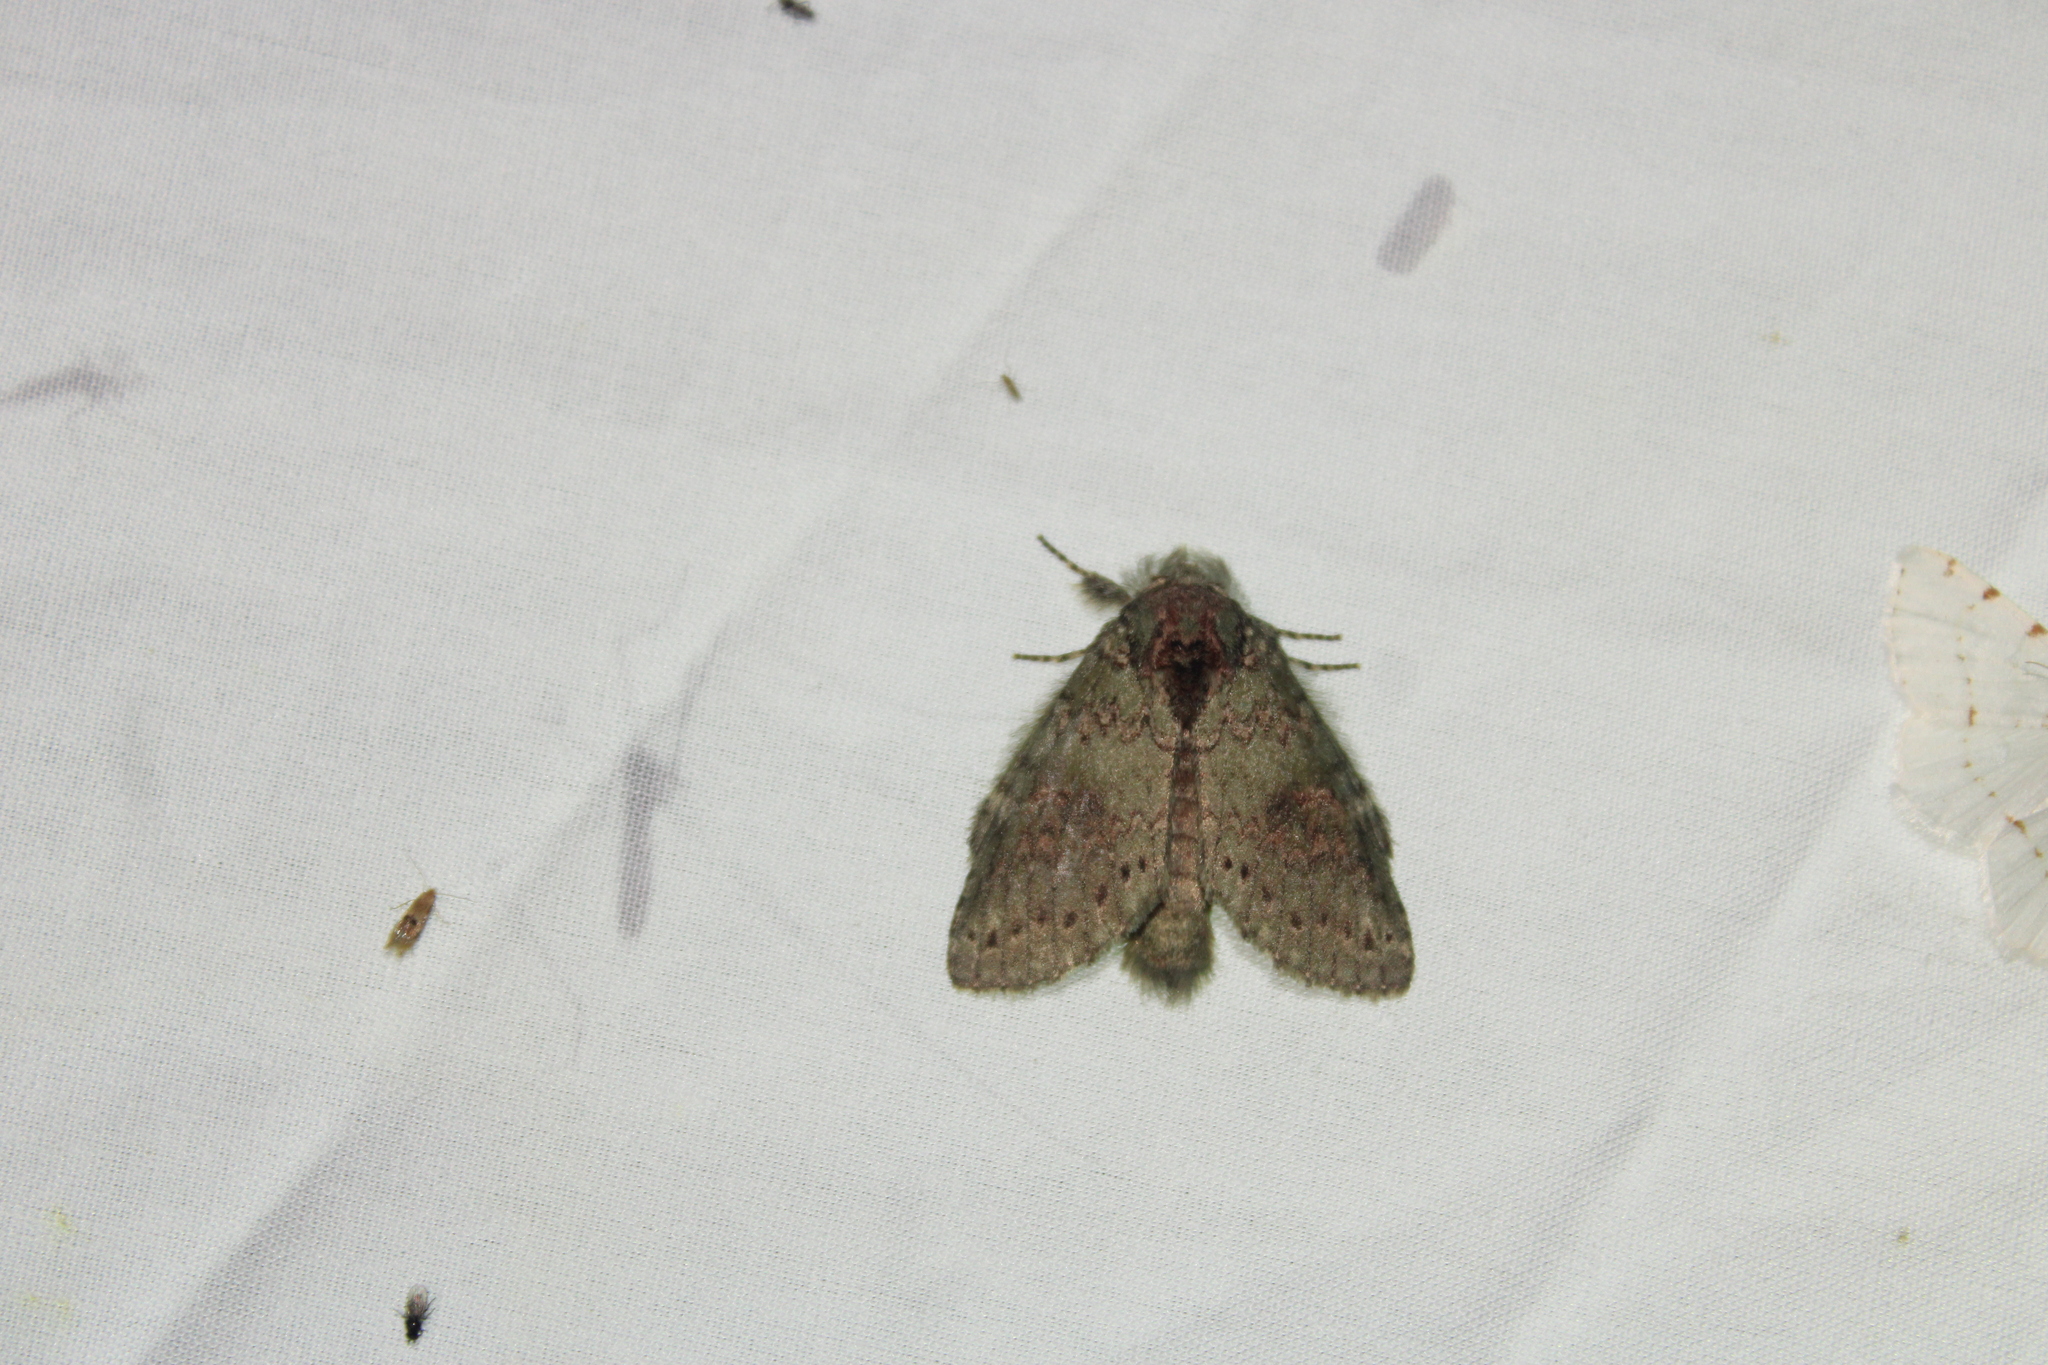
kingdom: Animalia
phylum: Arthropoda
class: Insecta
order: Lepidoptera
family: Notodontidae
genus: Disphragis
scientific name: Disphragis Cecrita biundata
